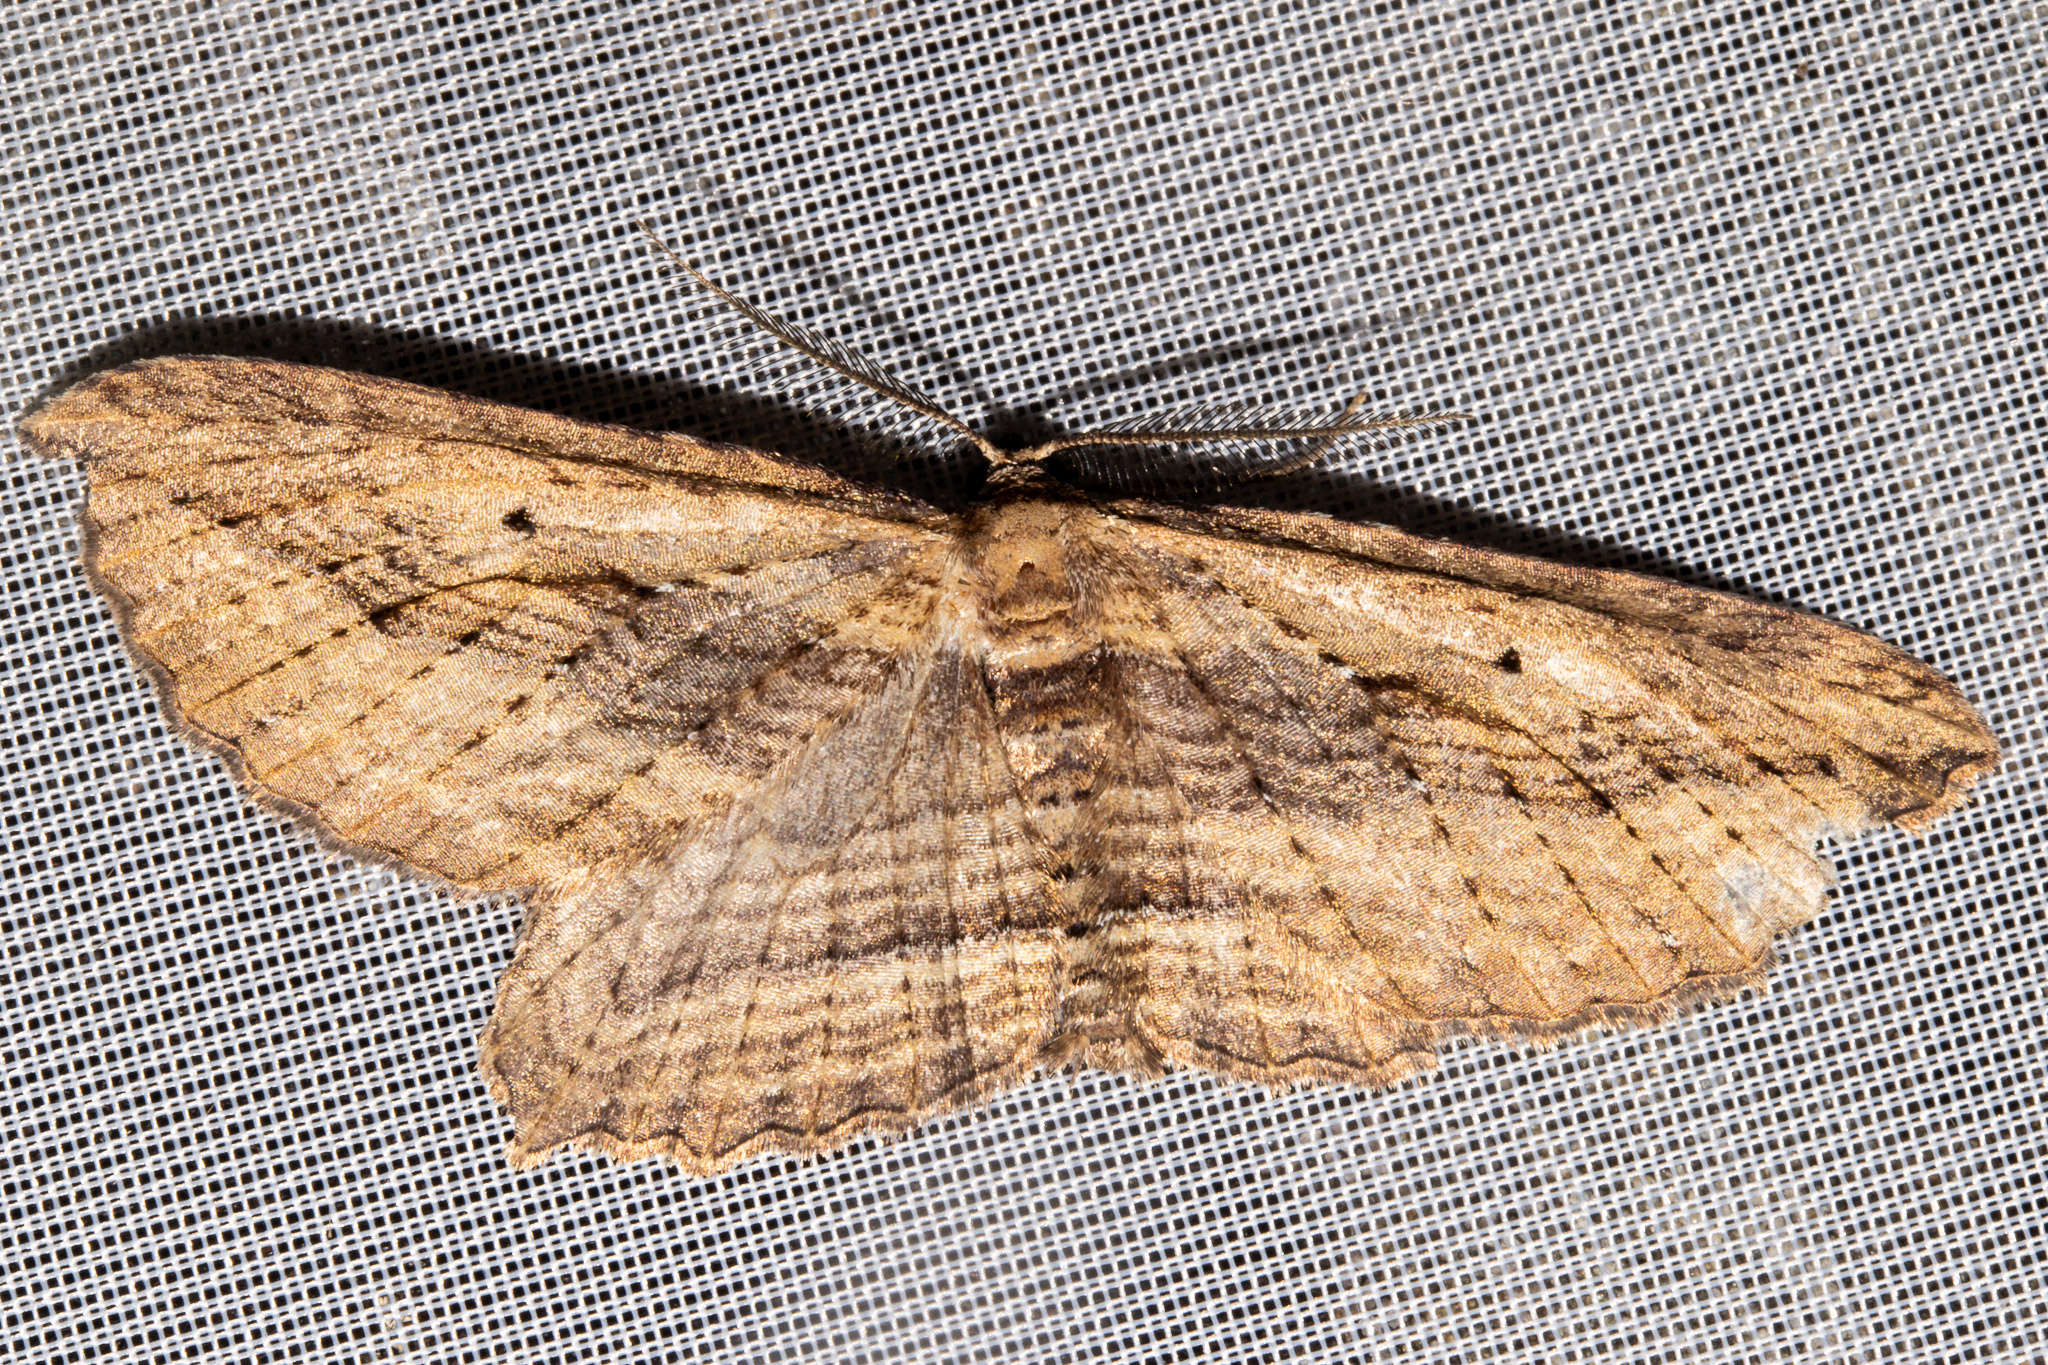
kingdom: Animalia
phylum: Arthropoda
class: Insecta
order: Lepidoptera
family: Geometridae
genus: Aponotoreas
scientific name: Aponotoreas dissimilis
